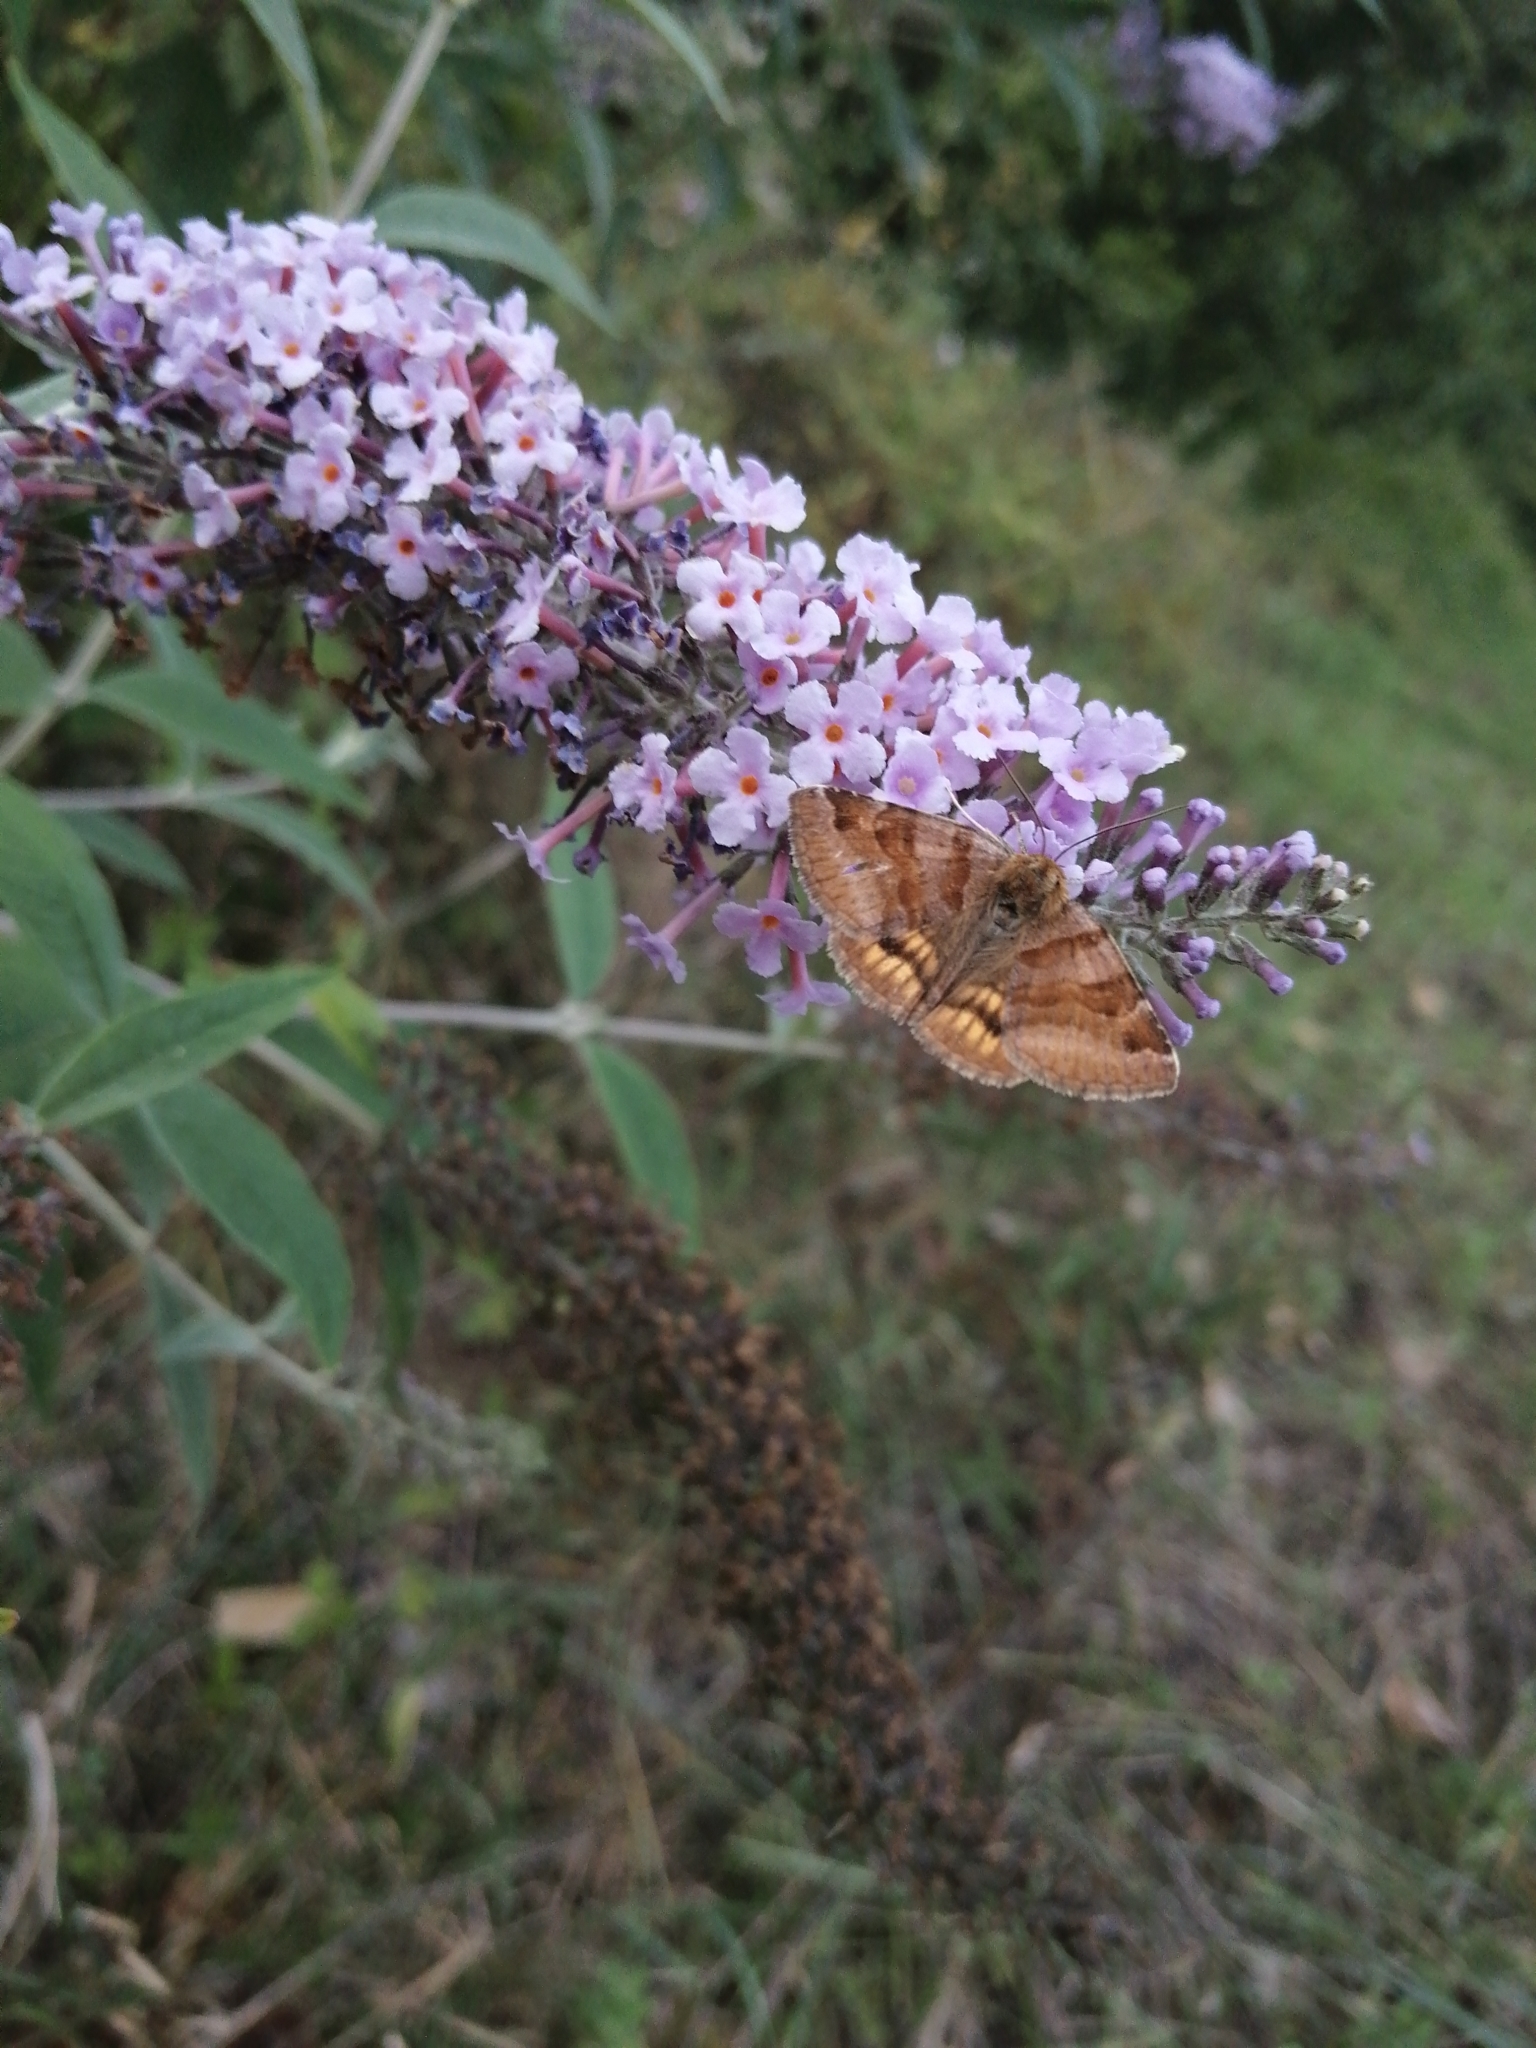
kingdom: Animalia
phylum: Arthropoda
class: Insecta
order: Lepidoptera
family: Erebidae
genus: Euclidia
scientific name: Euclidia glyphica
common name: Burnet companion
